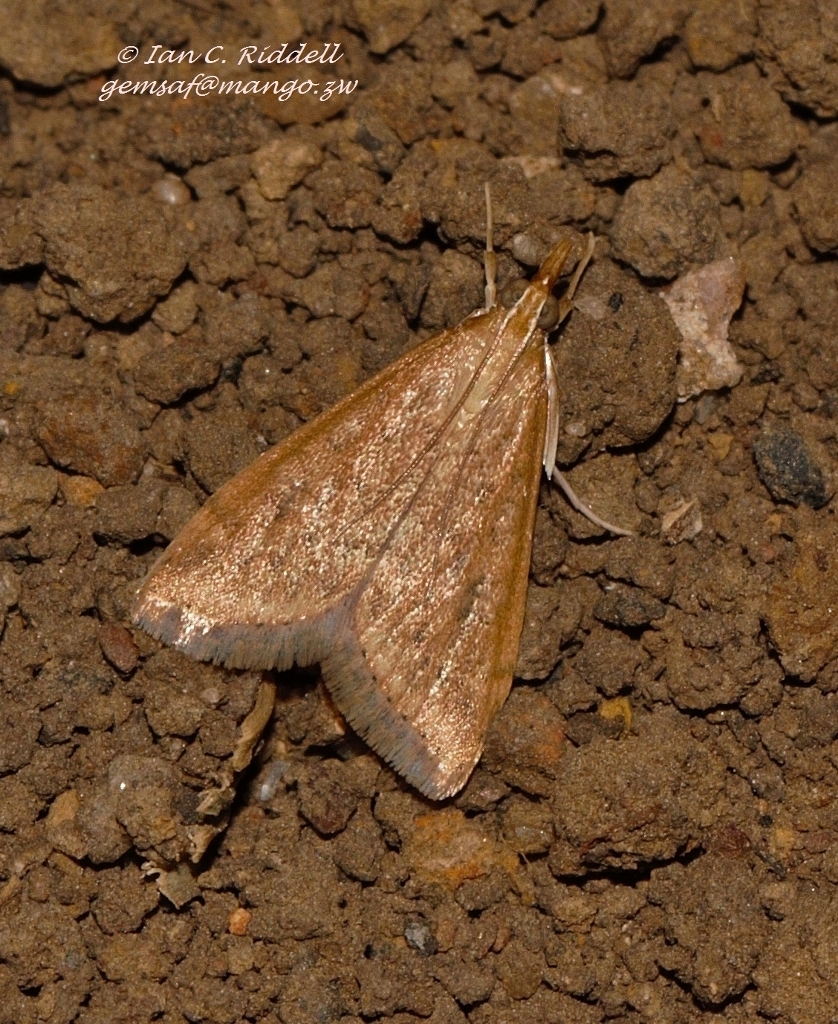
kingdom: Animalia
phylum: Arthropoda
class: Insecta
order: Lepidoptera
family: Crambidae
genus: Udea
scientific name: Udea ferrugalis
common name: Rusty dot
